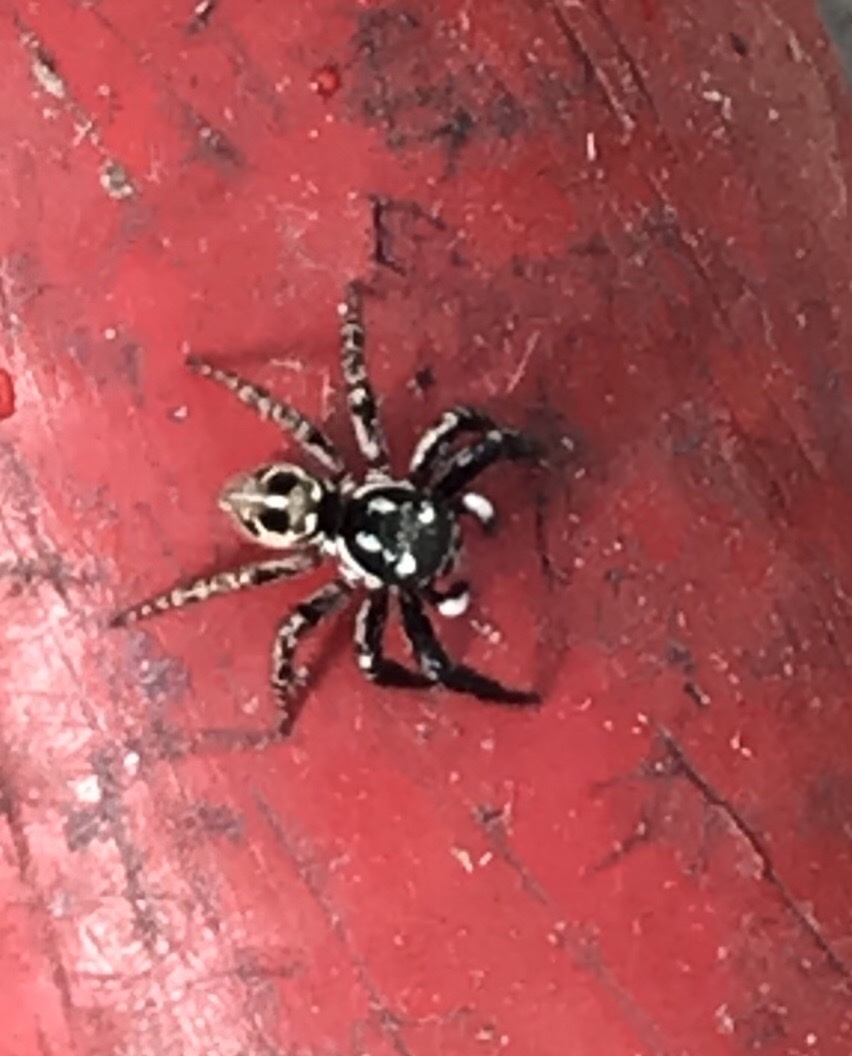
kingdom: Animalia
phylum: Arthropoda
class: Arachnida
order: Araneae
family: Salticidae
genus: Anasaitis
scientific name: Anasaitis canosa
